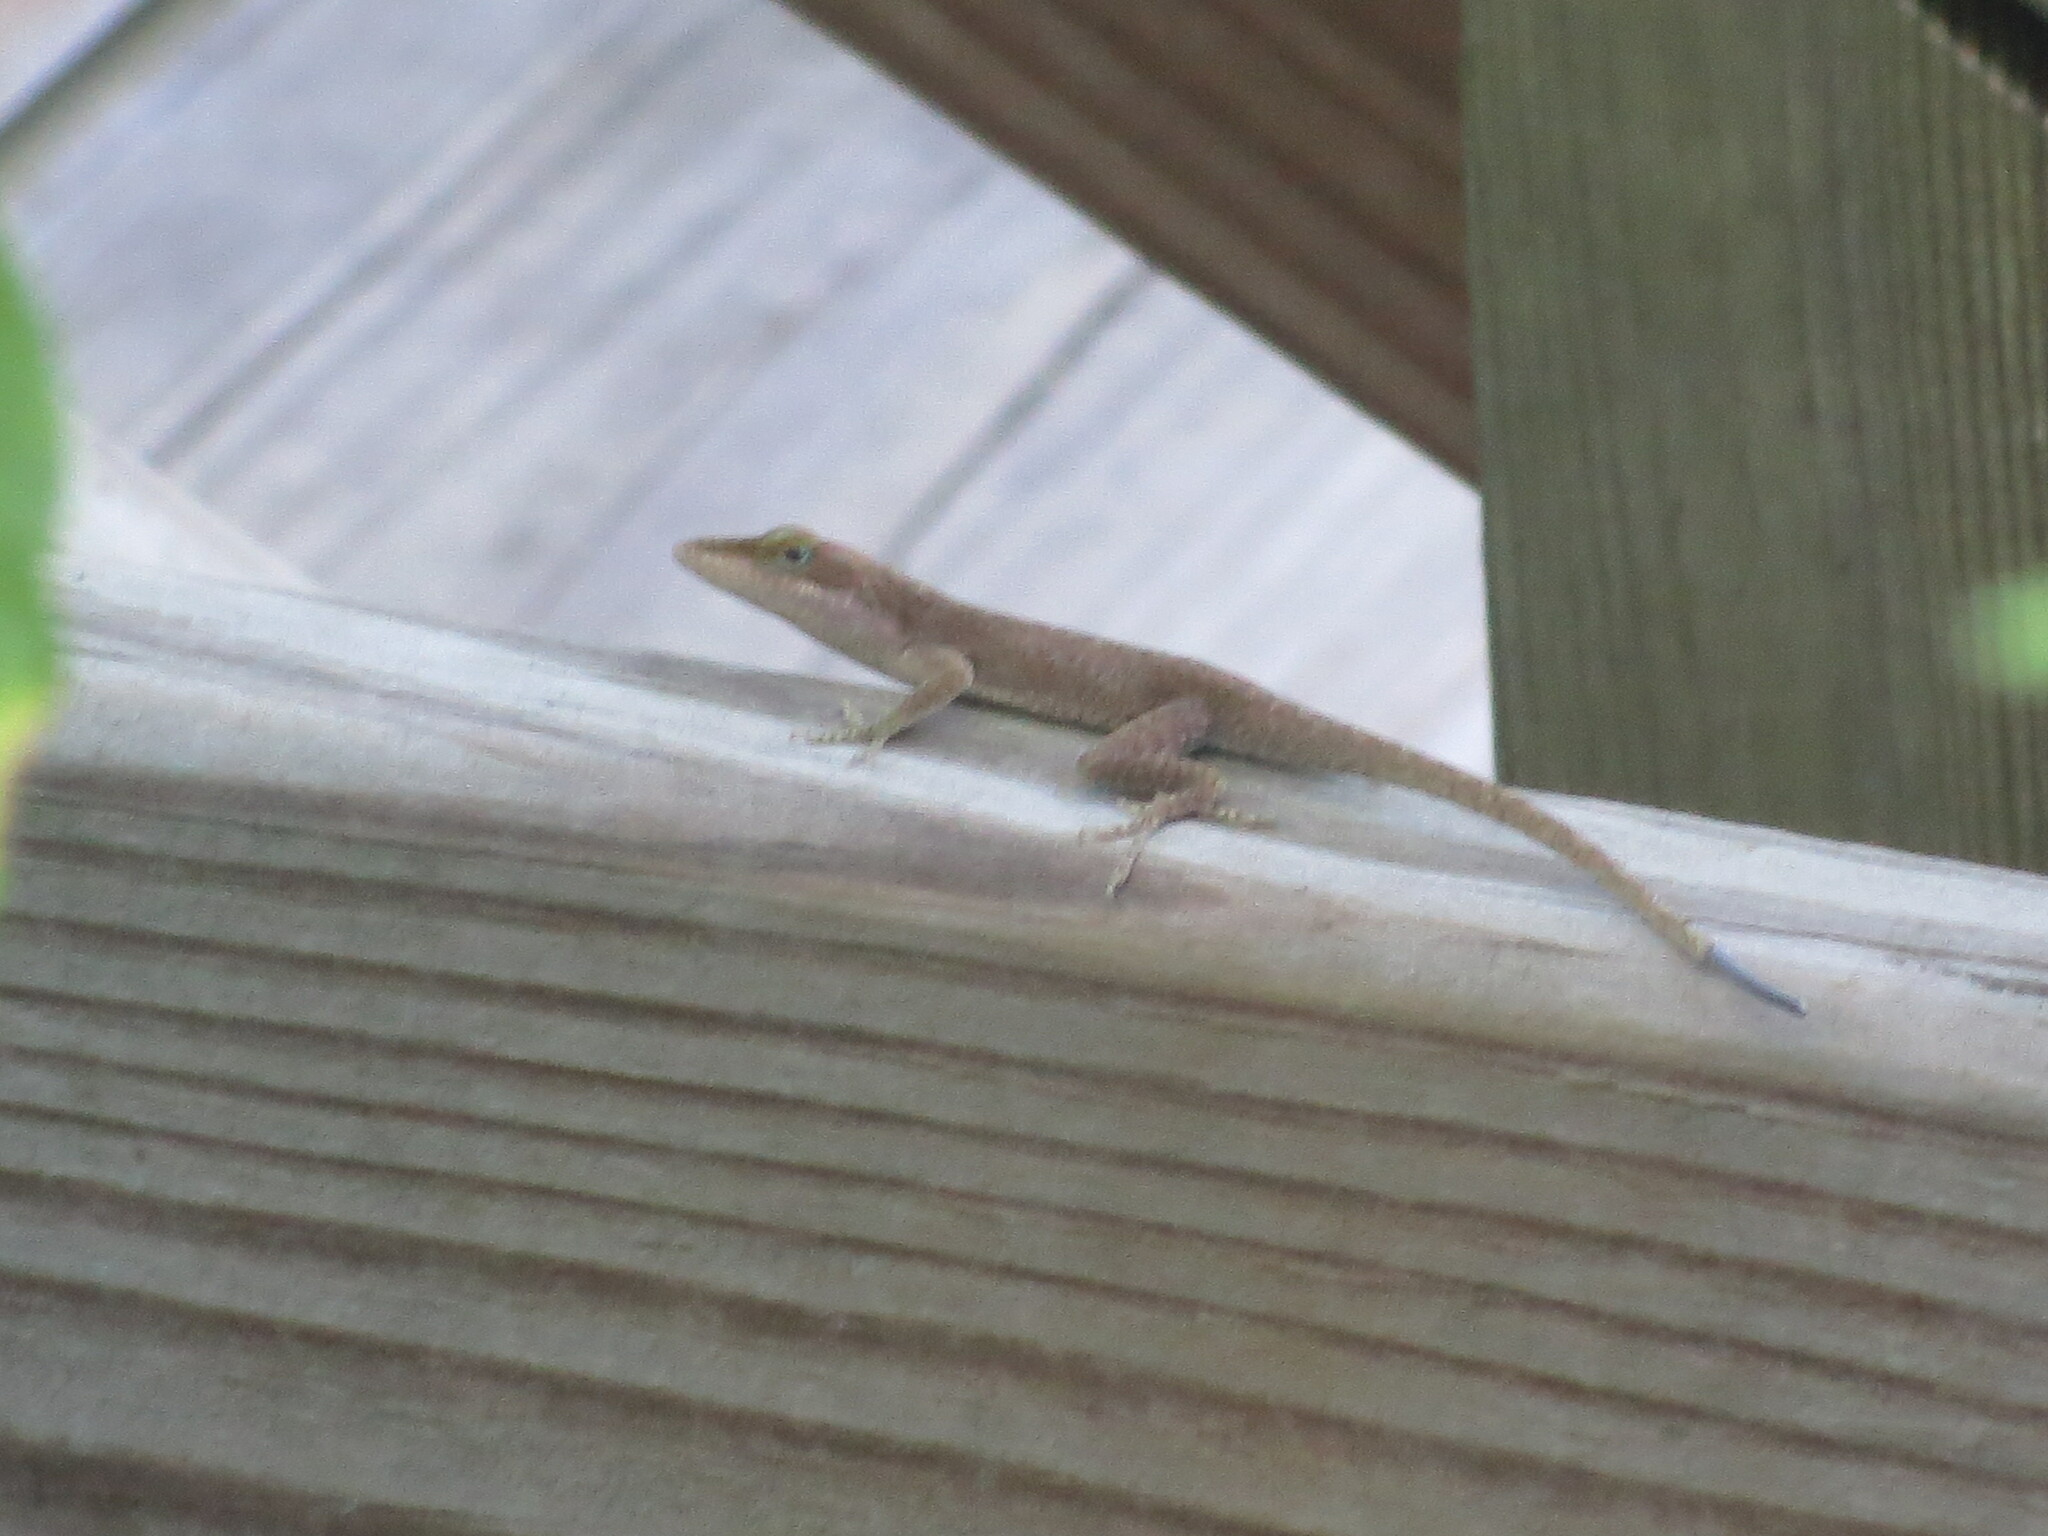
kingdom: Animalia
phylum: Chordata
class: Squamata
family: Dactyloidae
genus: Anolis
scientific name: Anolis carolinensis
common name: Green anole
